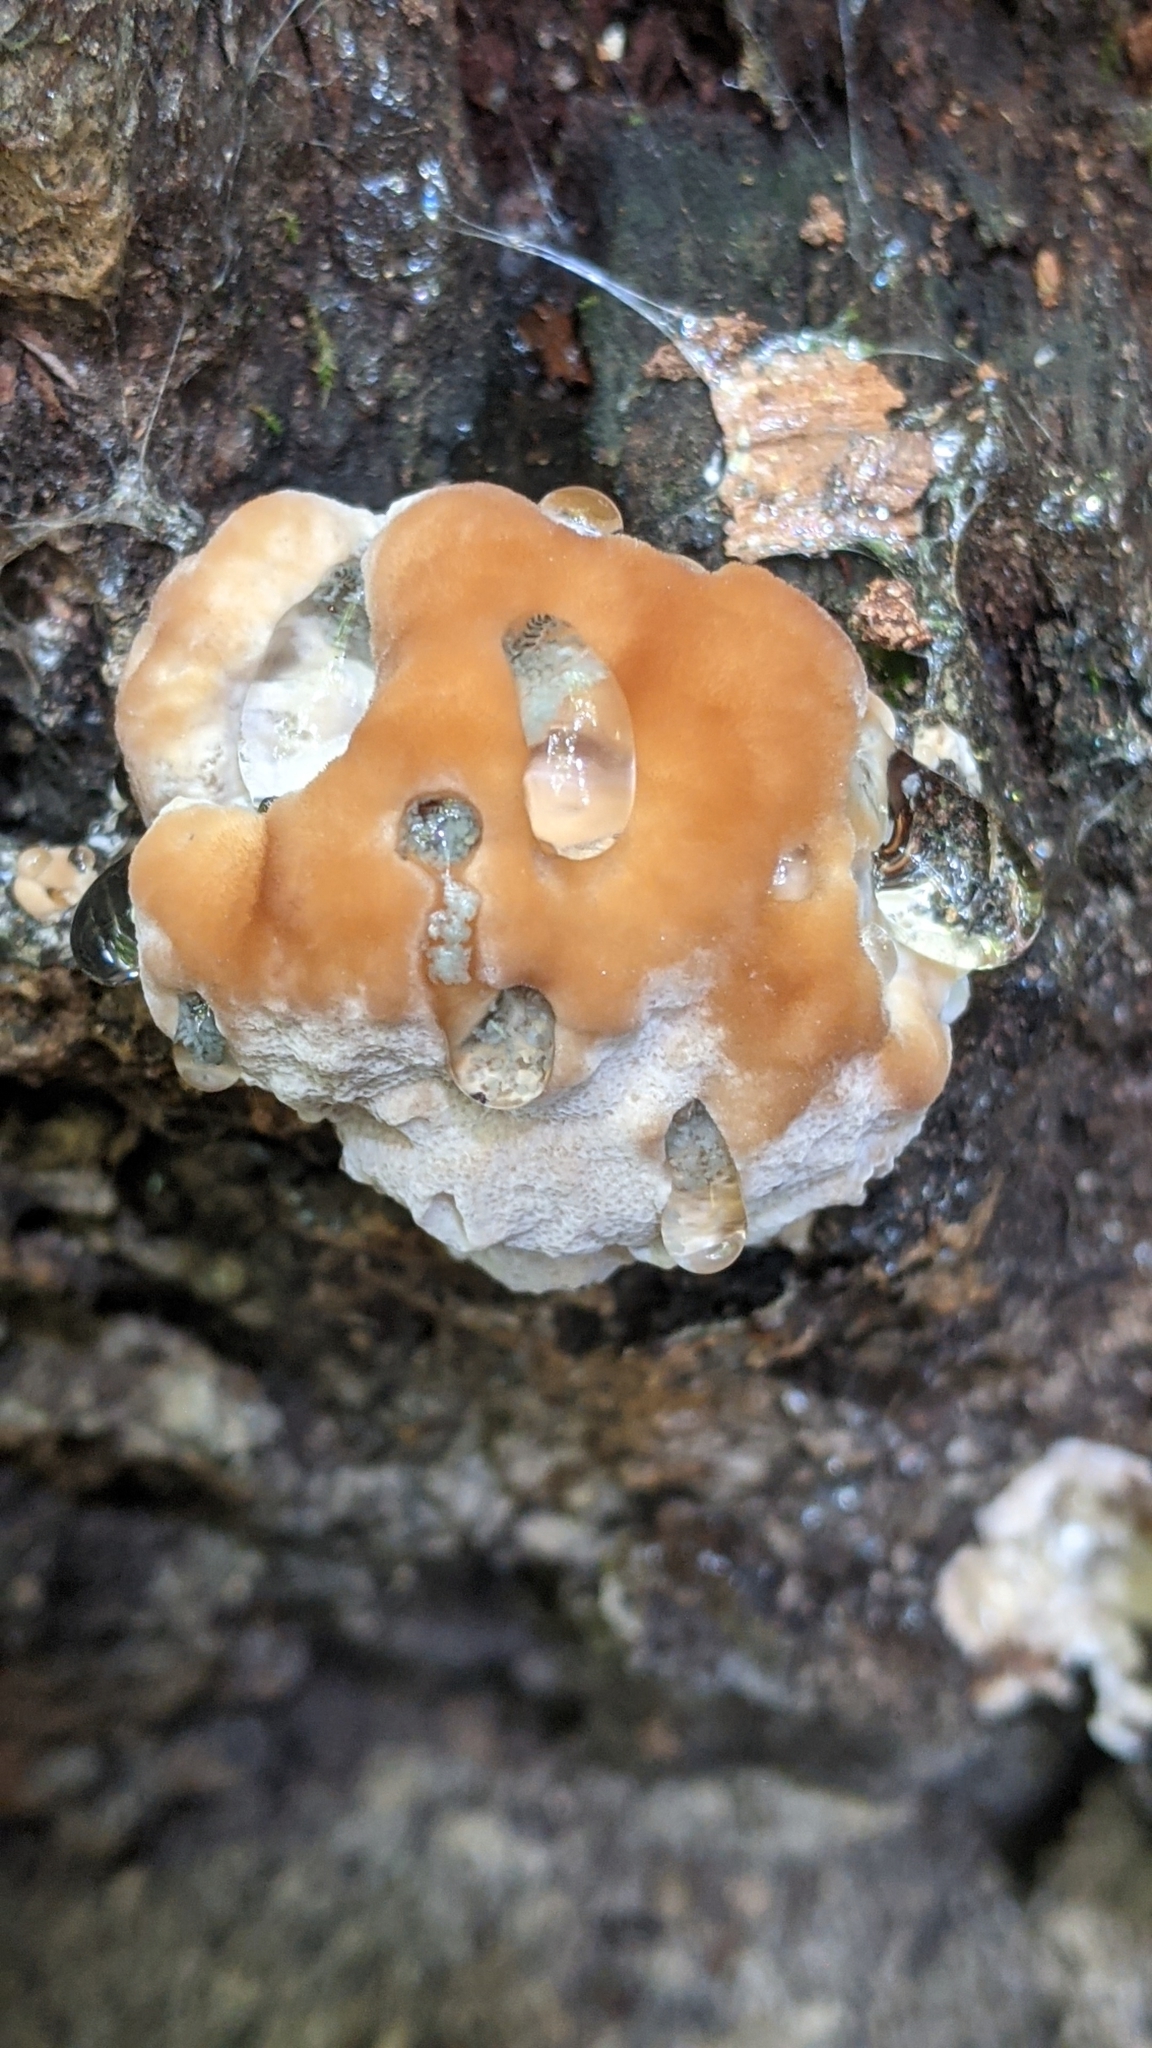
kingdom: Fungi
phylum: Basidiomycota
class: Agaricomycetes
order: Polyporales
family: Fomitopsidaceae
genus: Niveoporofomes
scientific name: Niveoporofomes spraguei
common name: Green cheese polypore
